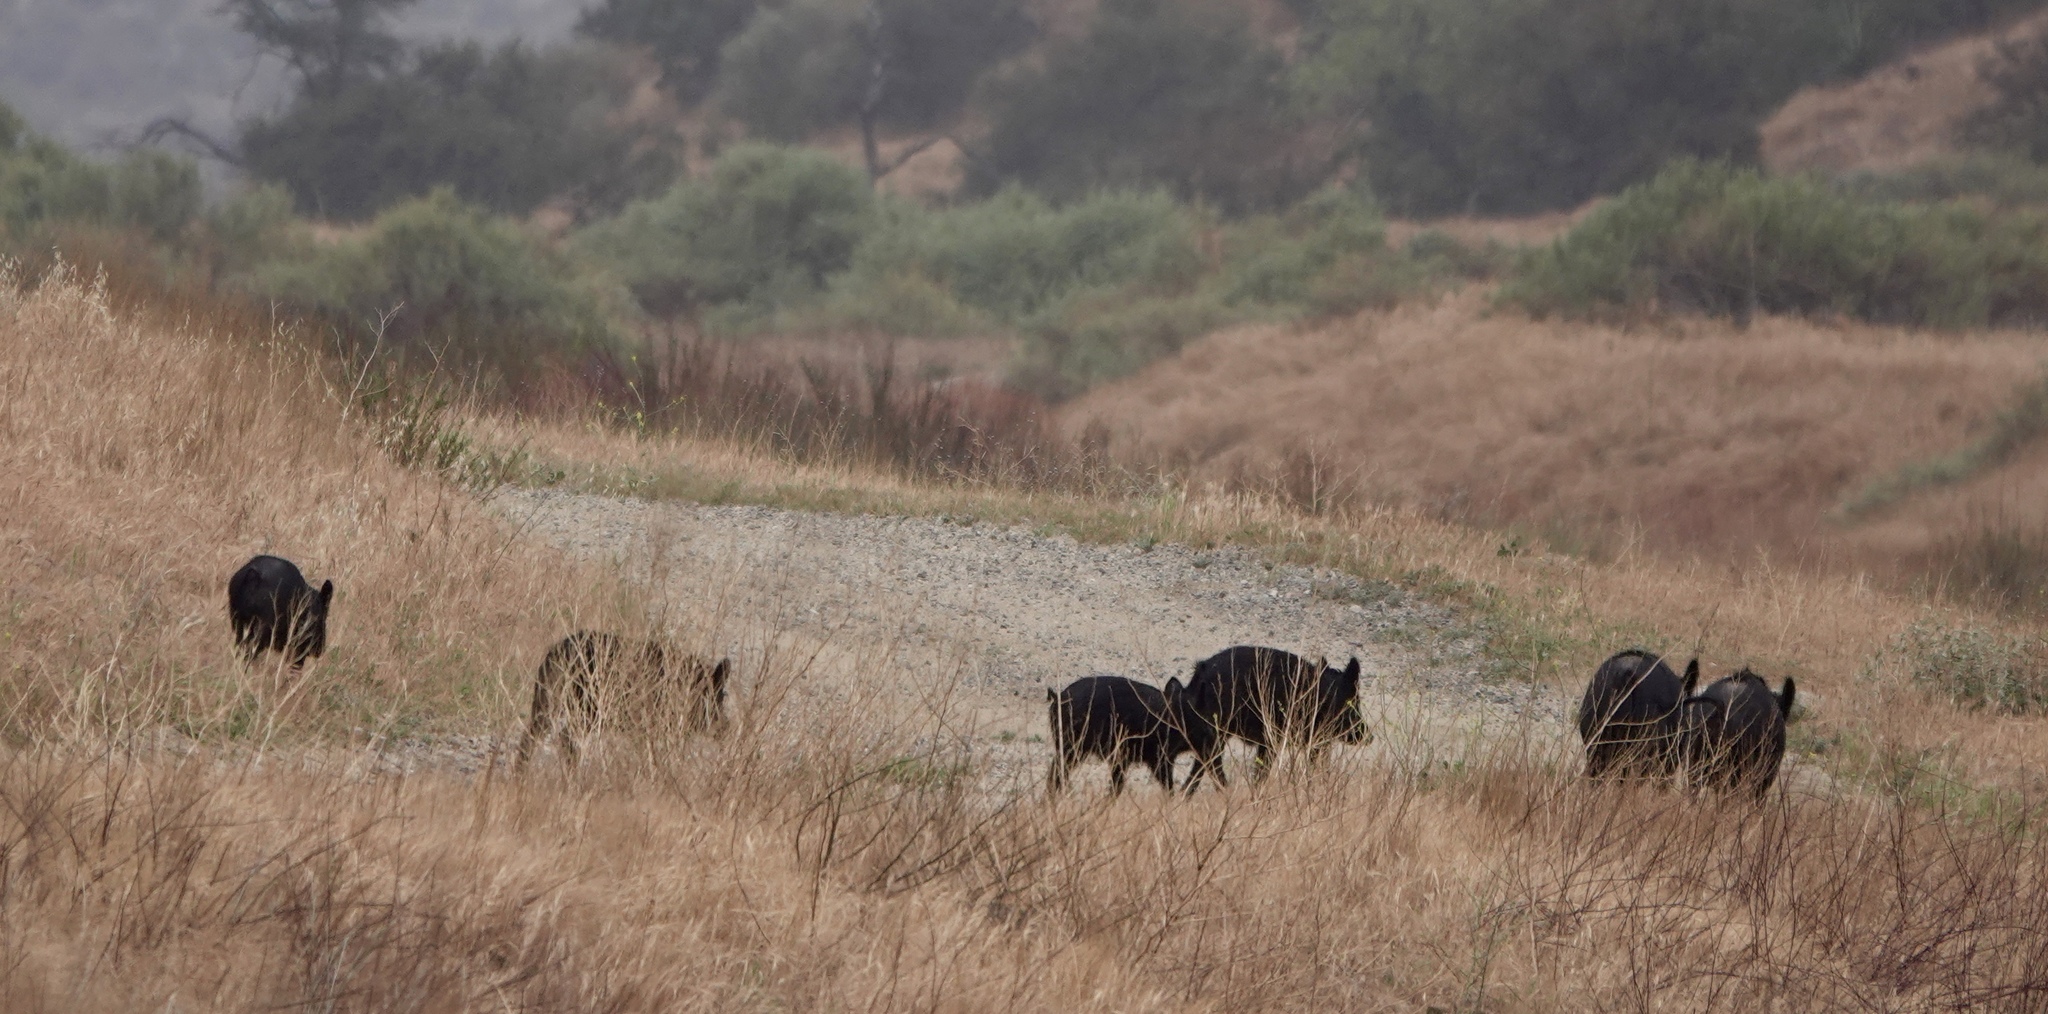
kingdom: Animalia
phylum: Chordata
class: Mammalia
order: Artiodactyla
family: Suidae
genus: Sus
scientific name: Sus scrofa
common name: Wild boar
